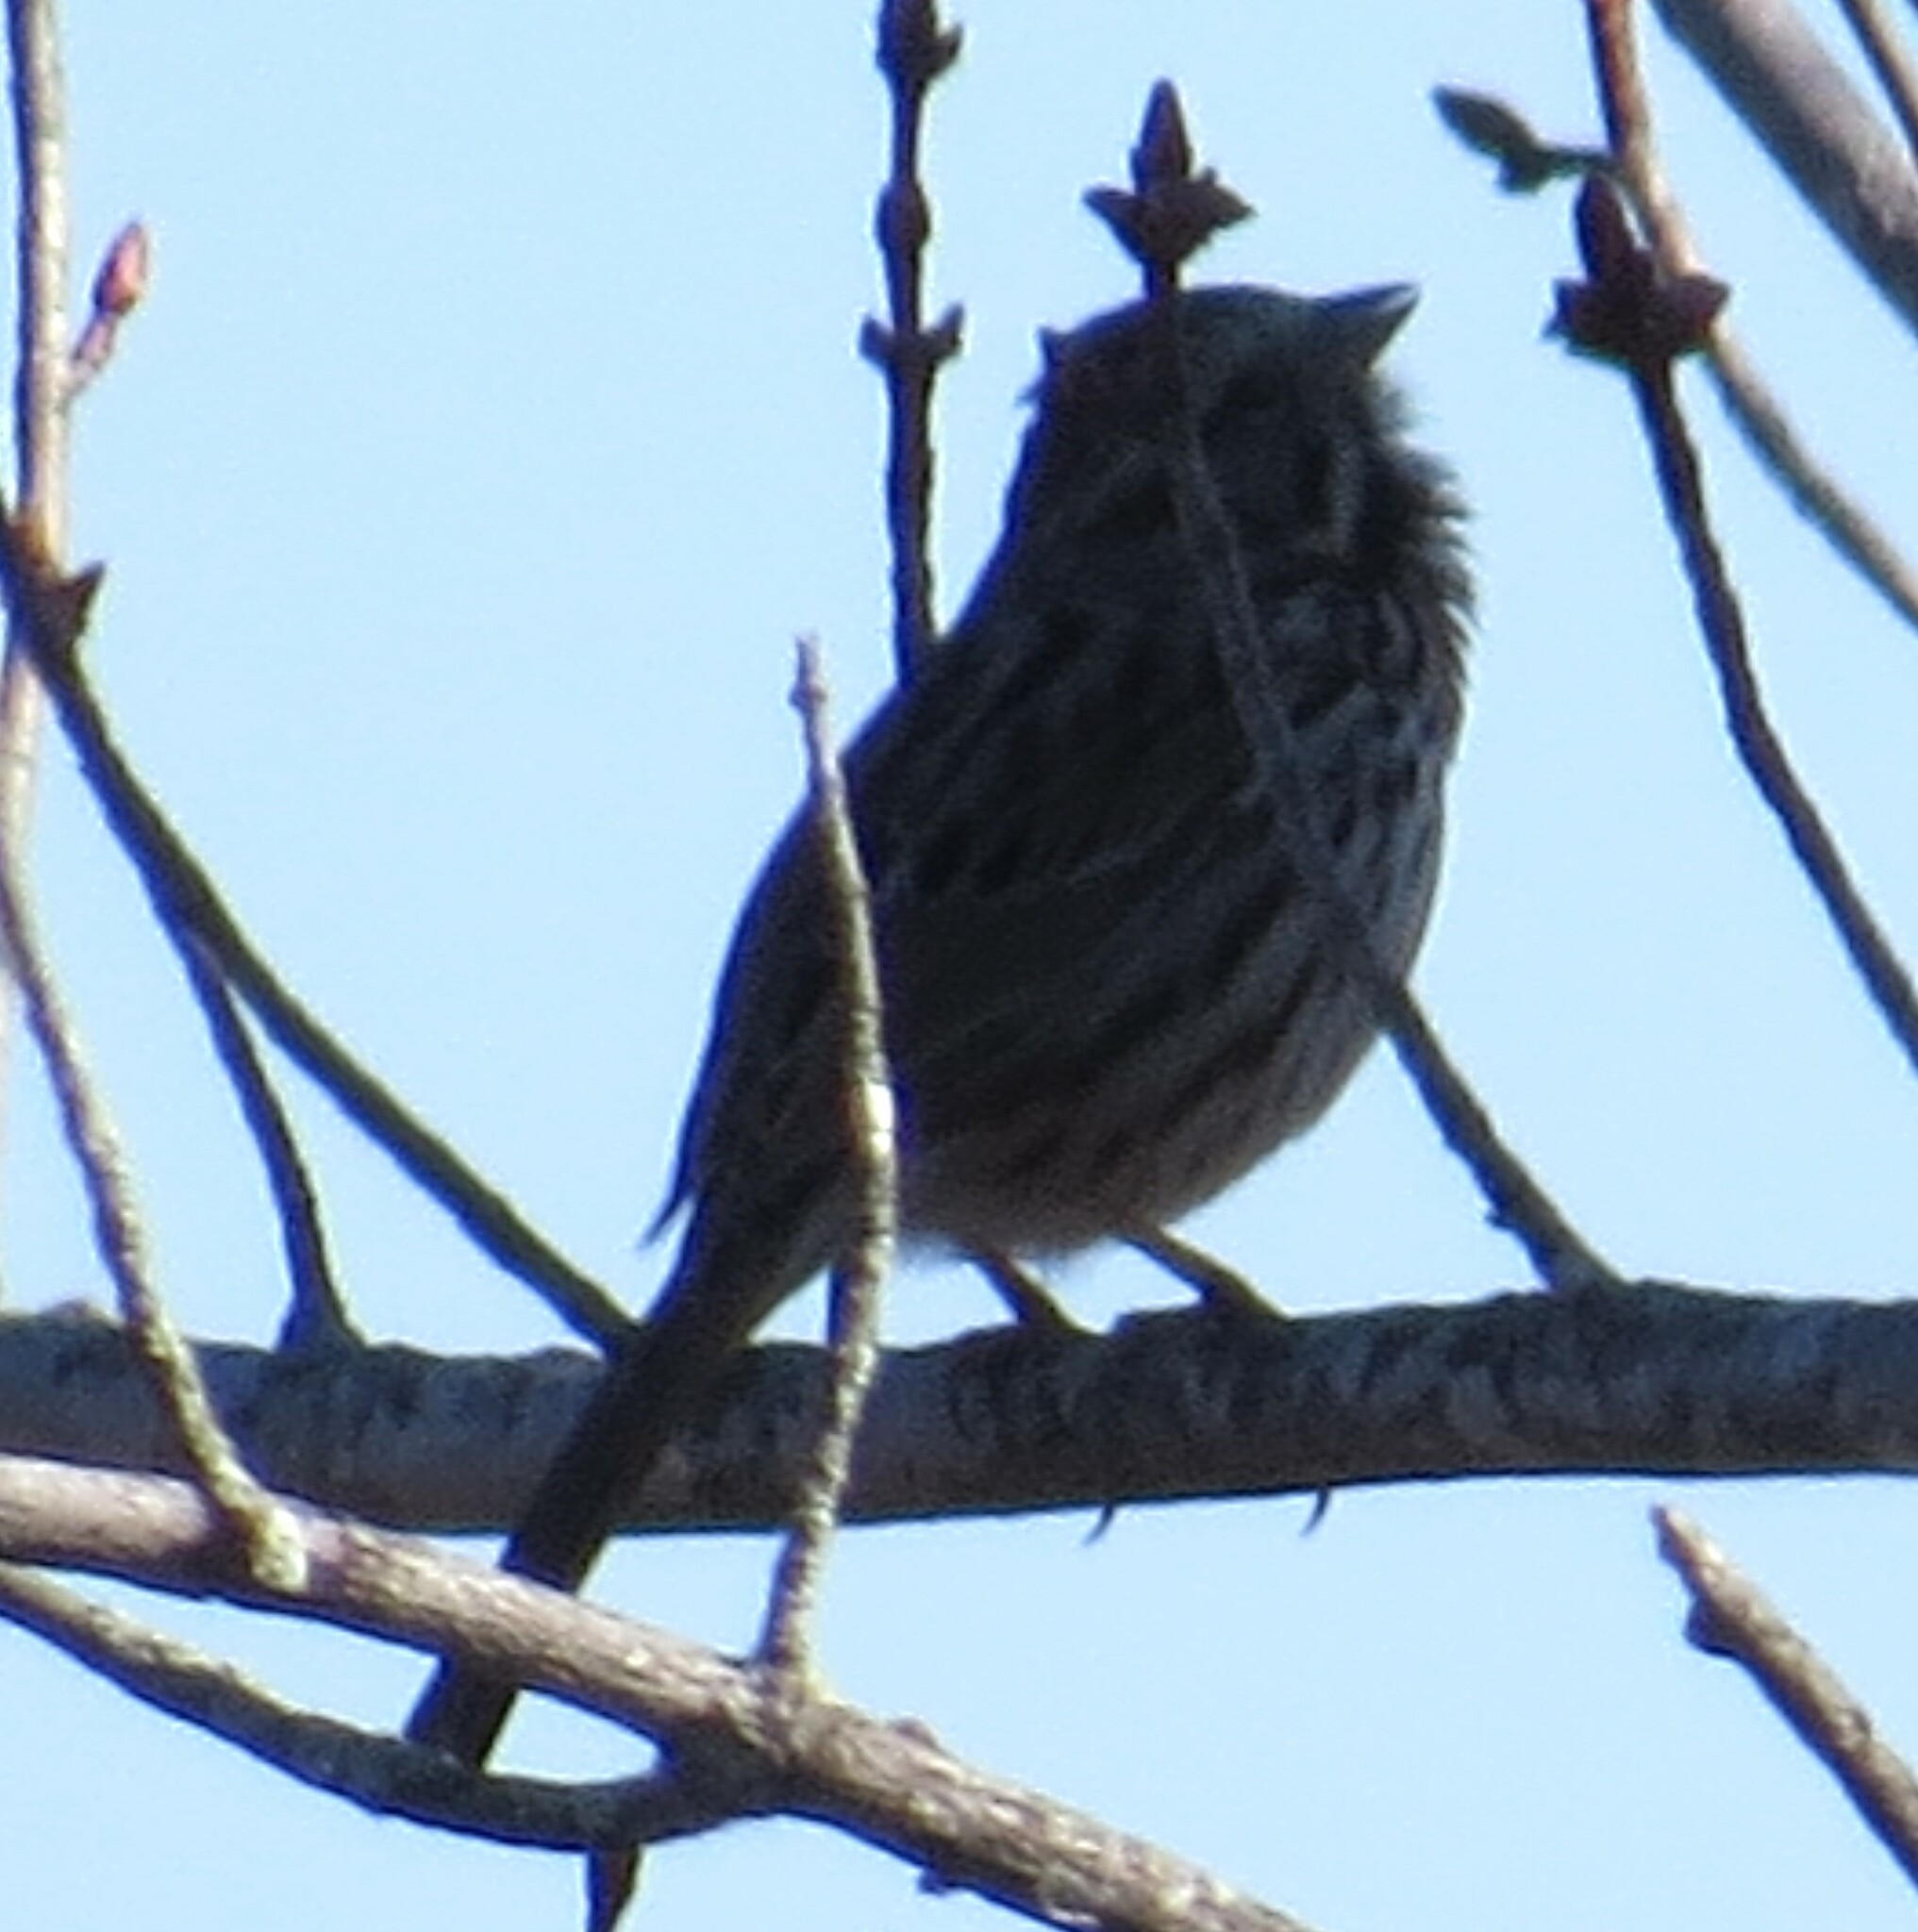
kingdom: Animalia
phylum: Chordata
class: Aves
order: Passeriformes
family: Passerellidae
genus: Melospiza
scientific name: Melospiza melodia
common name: Song sparrow
